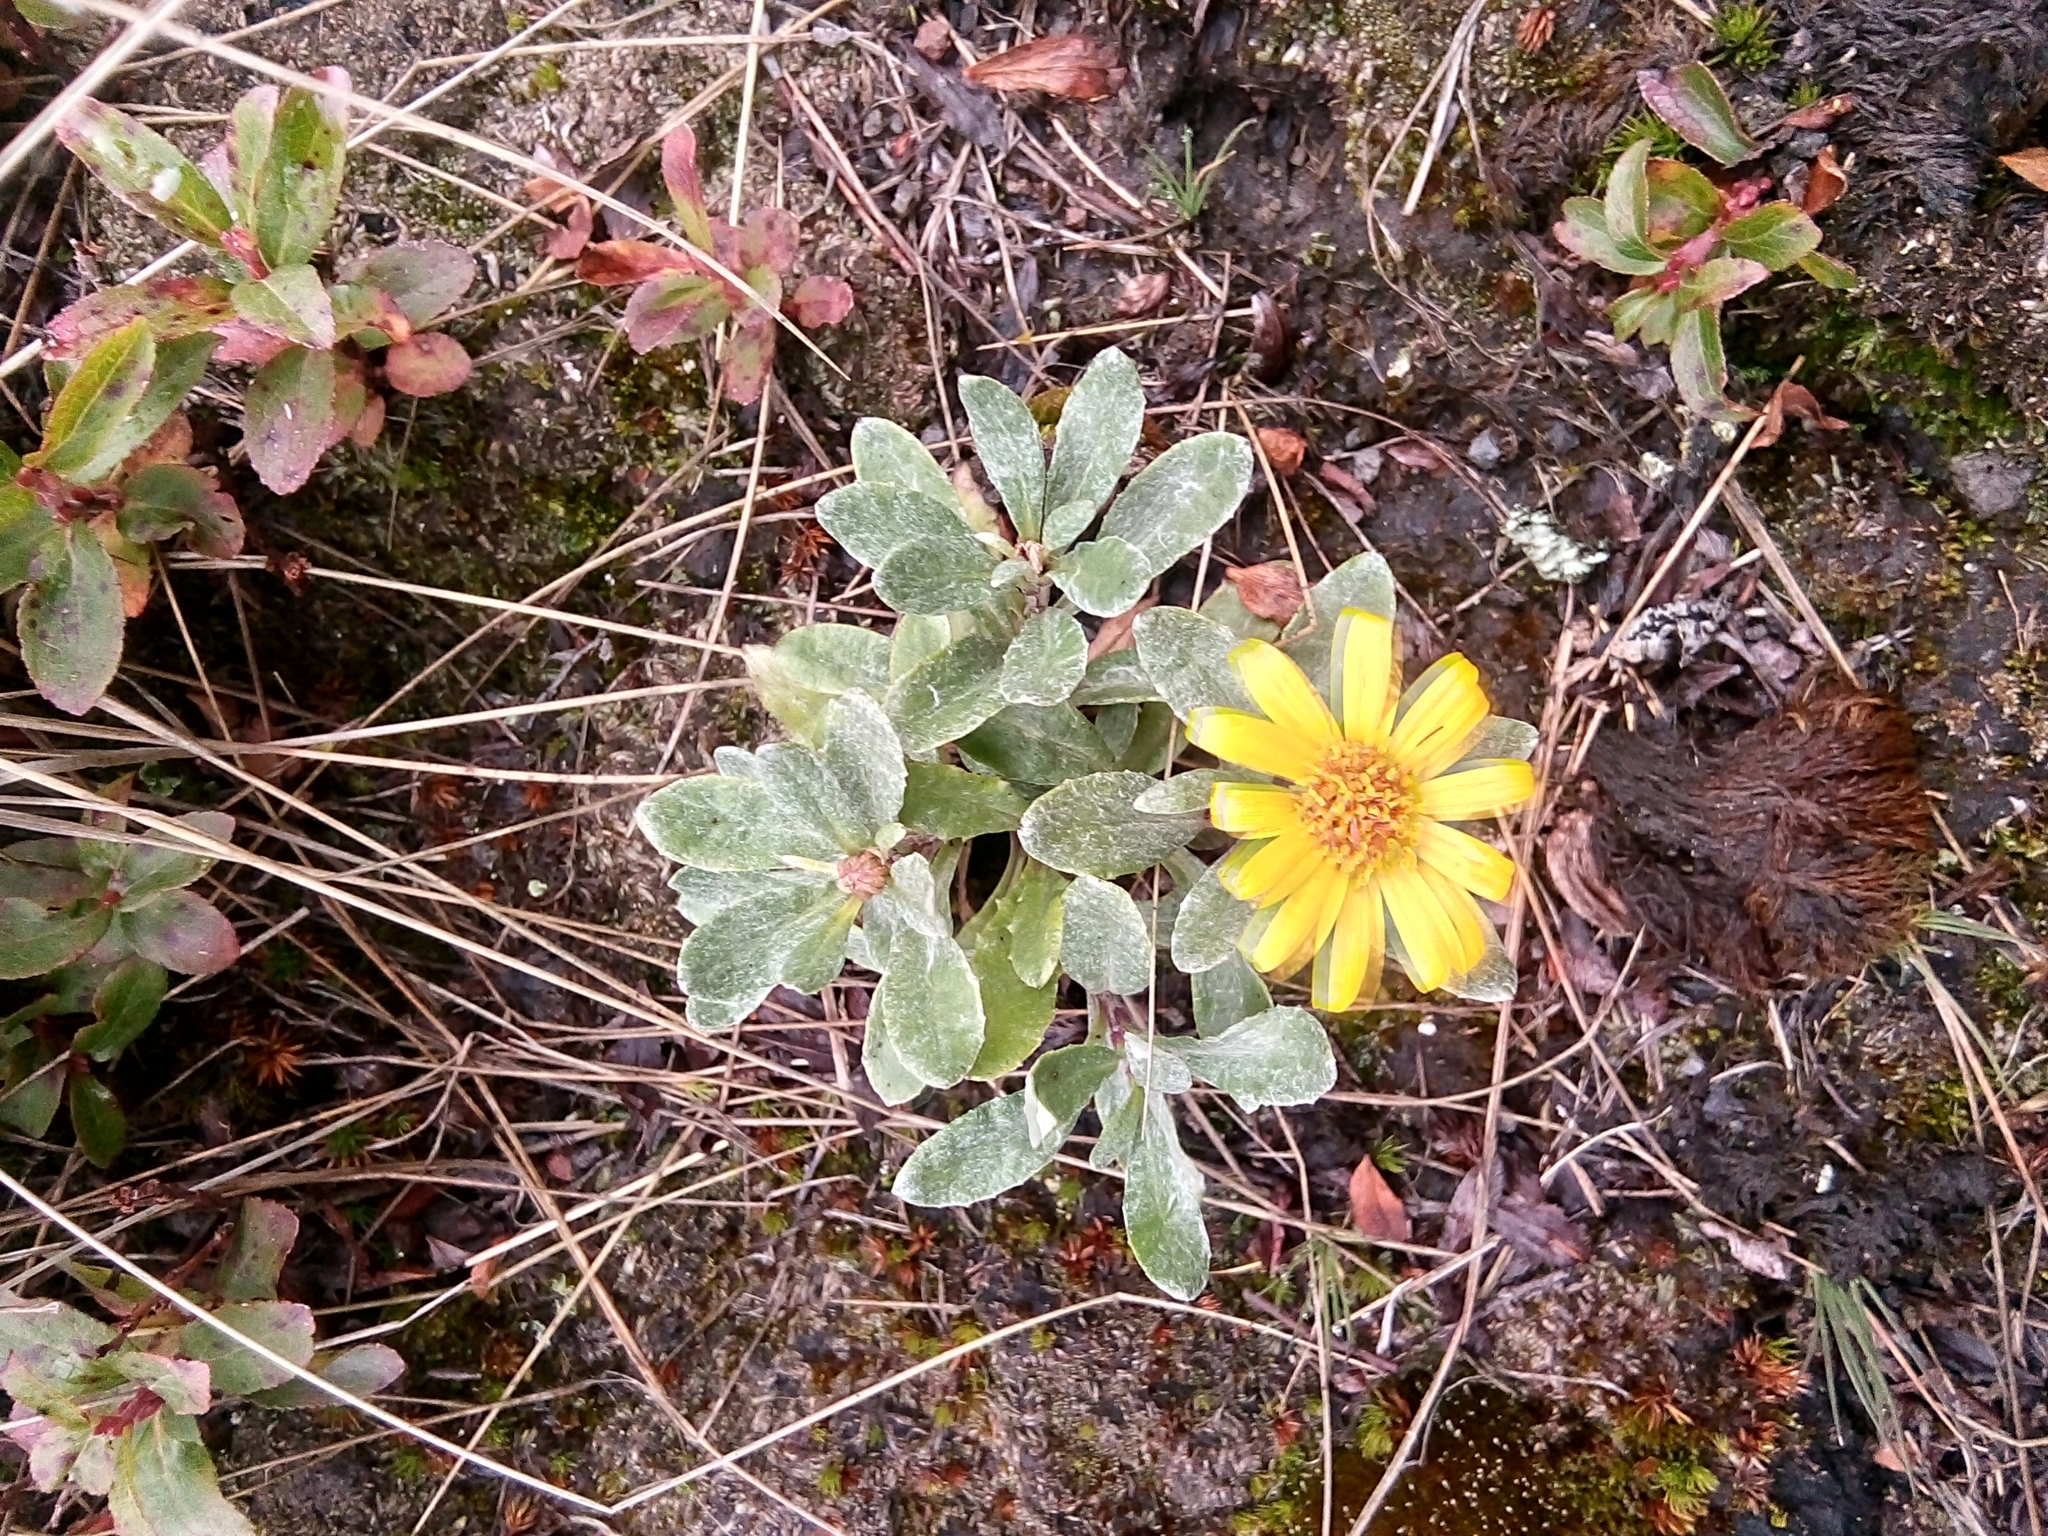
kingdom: Plantae
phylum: Tracheophyta
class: Magnoliopsida
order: Asterales
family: Asteraceae
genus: Senecio
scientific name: Senecio procumbens
